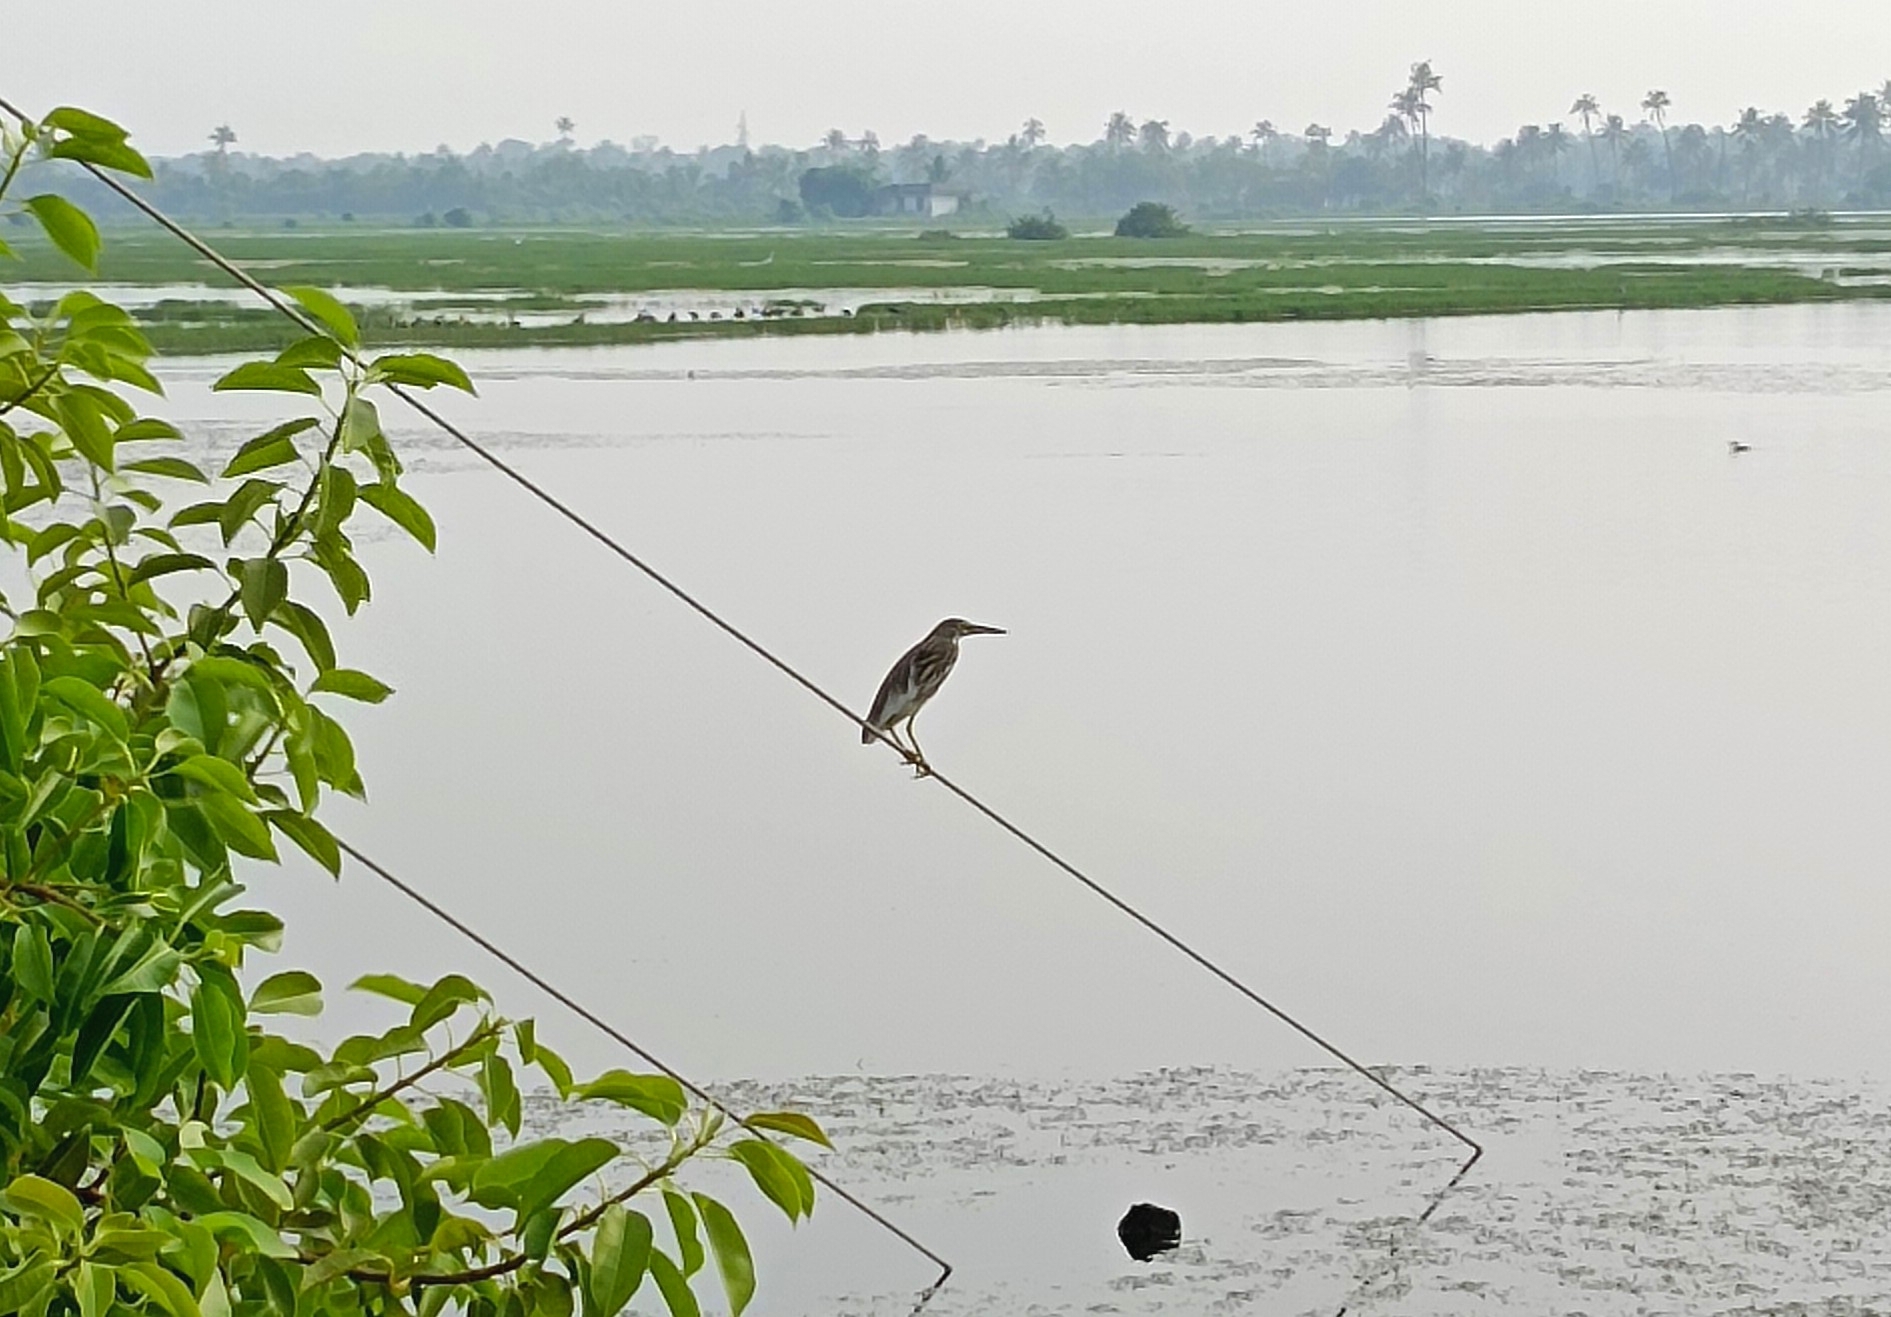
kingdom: Animalia
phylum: Chordata
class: Aves
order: Pelecaniformes
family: Ardeidae
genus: Ardeola
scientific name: Ardeola grayii
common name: Indian pond heron
